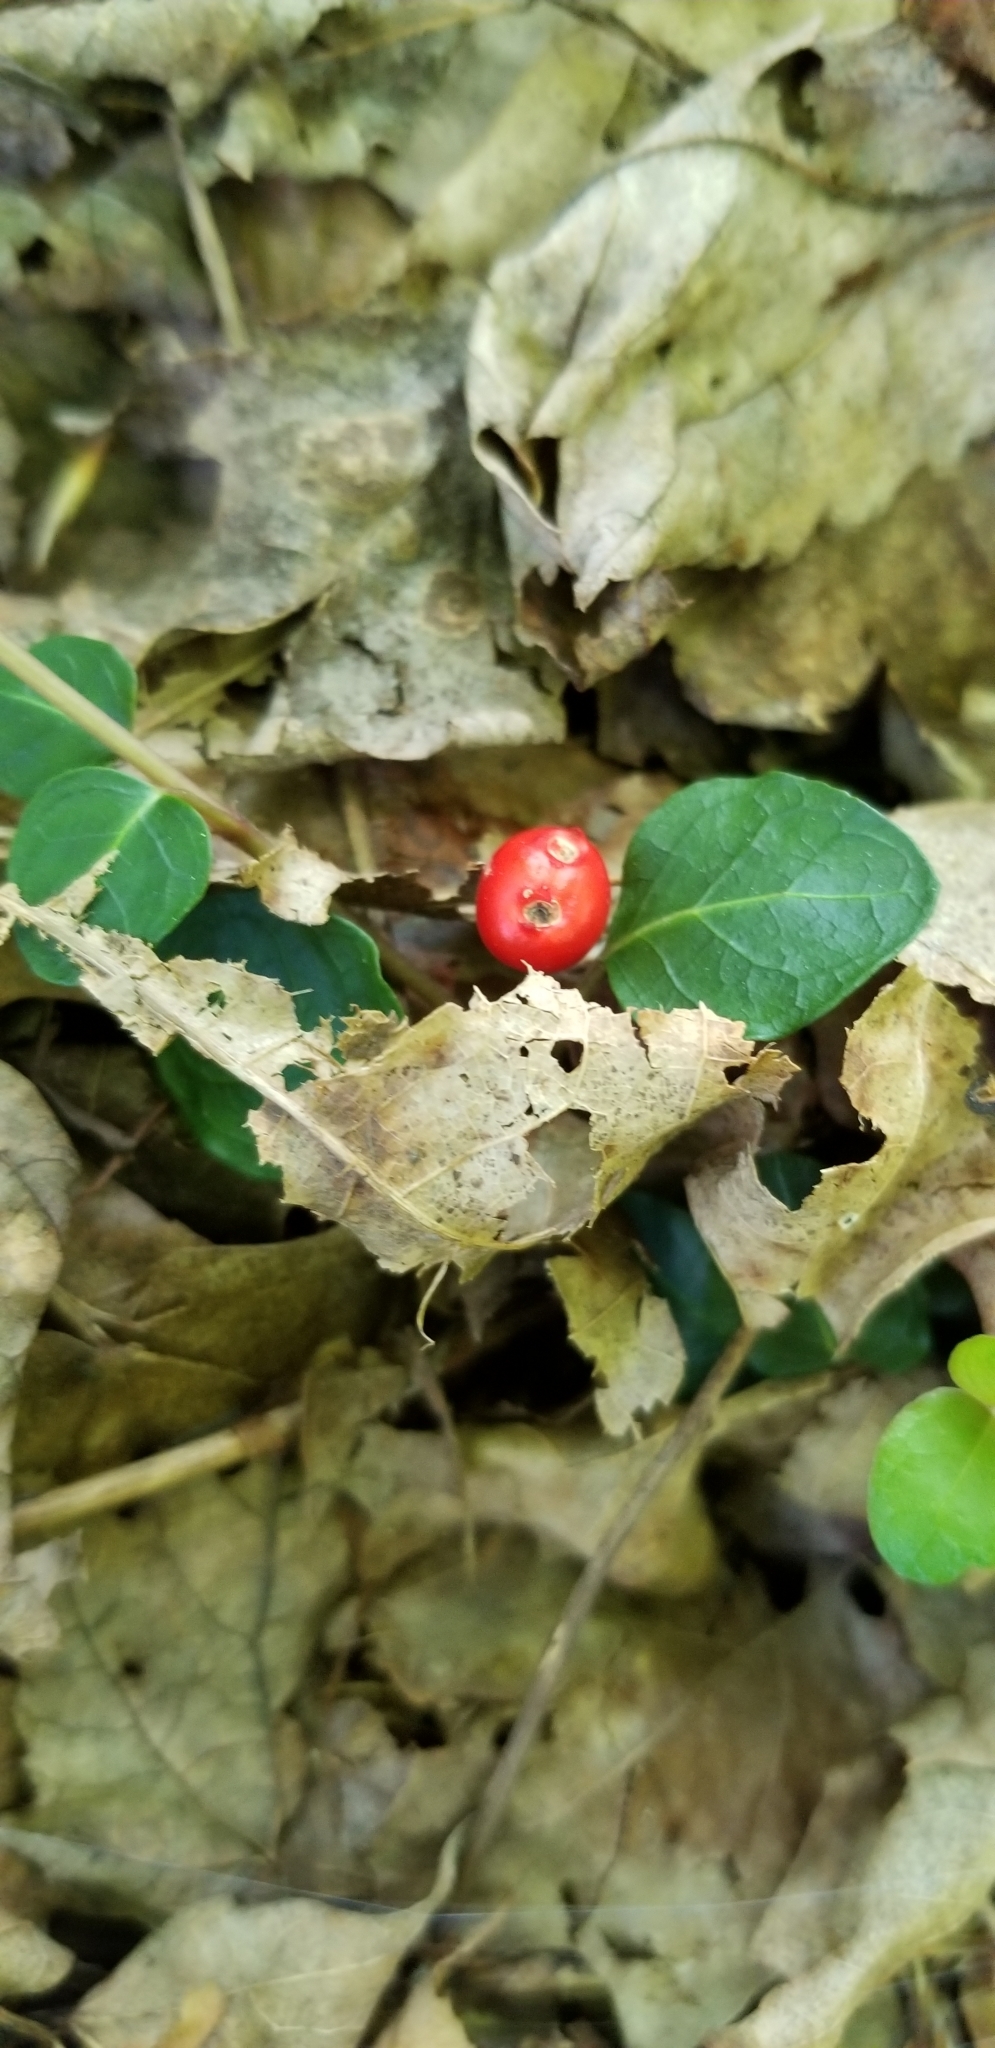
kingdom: Plantae
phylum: Tracheophyta
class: Magnoliopsida
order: Gentianales
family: Rubiaceae
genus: Mitchella
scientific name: Mitchella repens
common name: Partridge-berry
